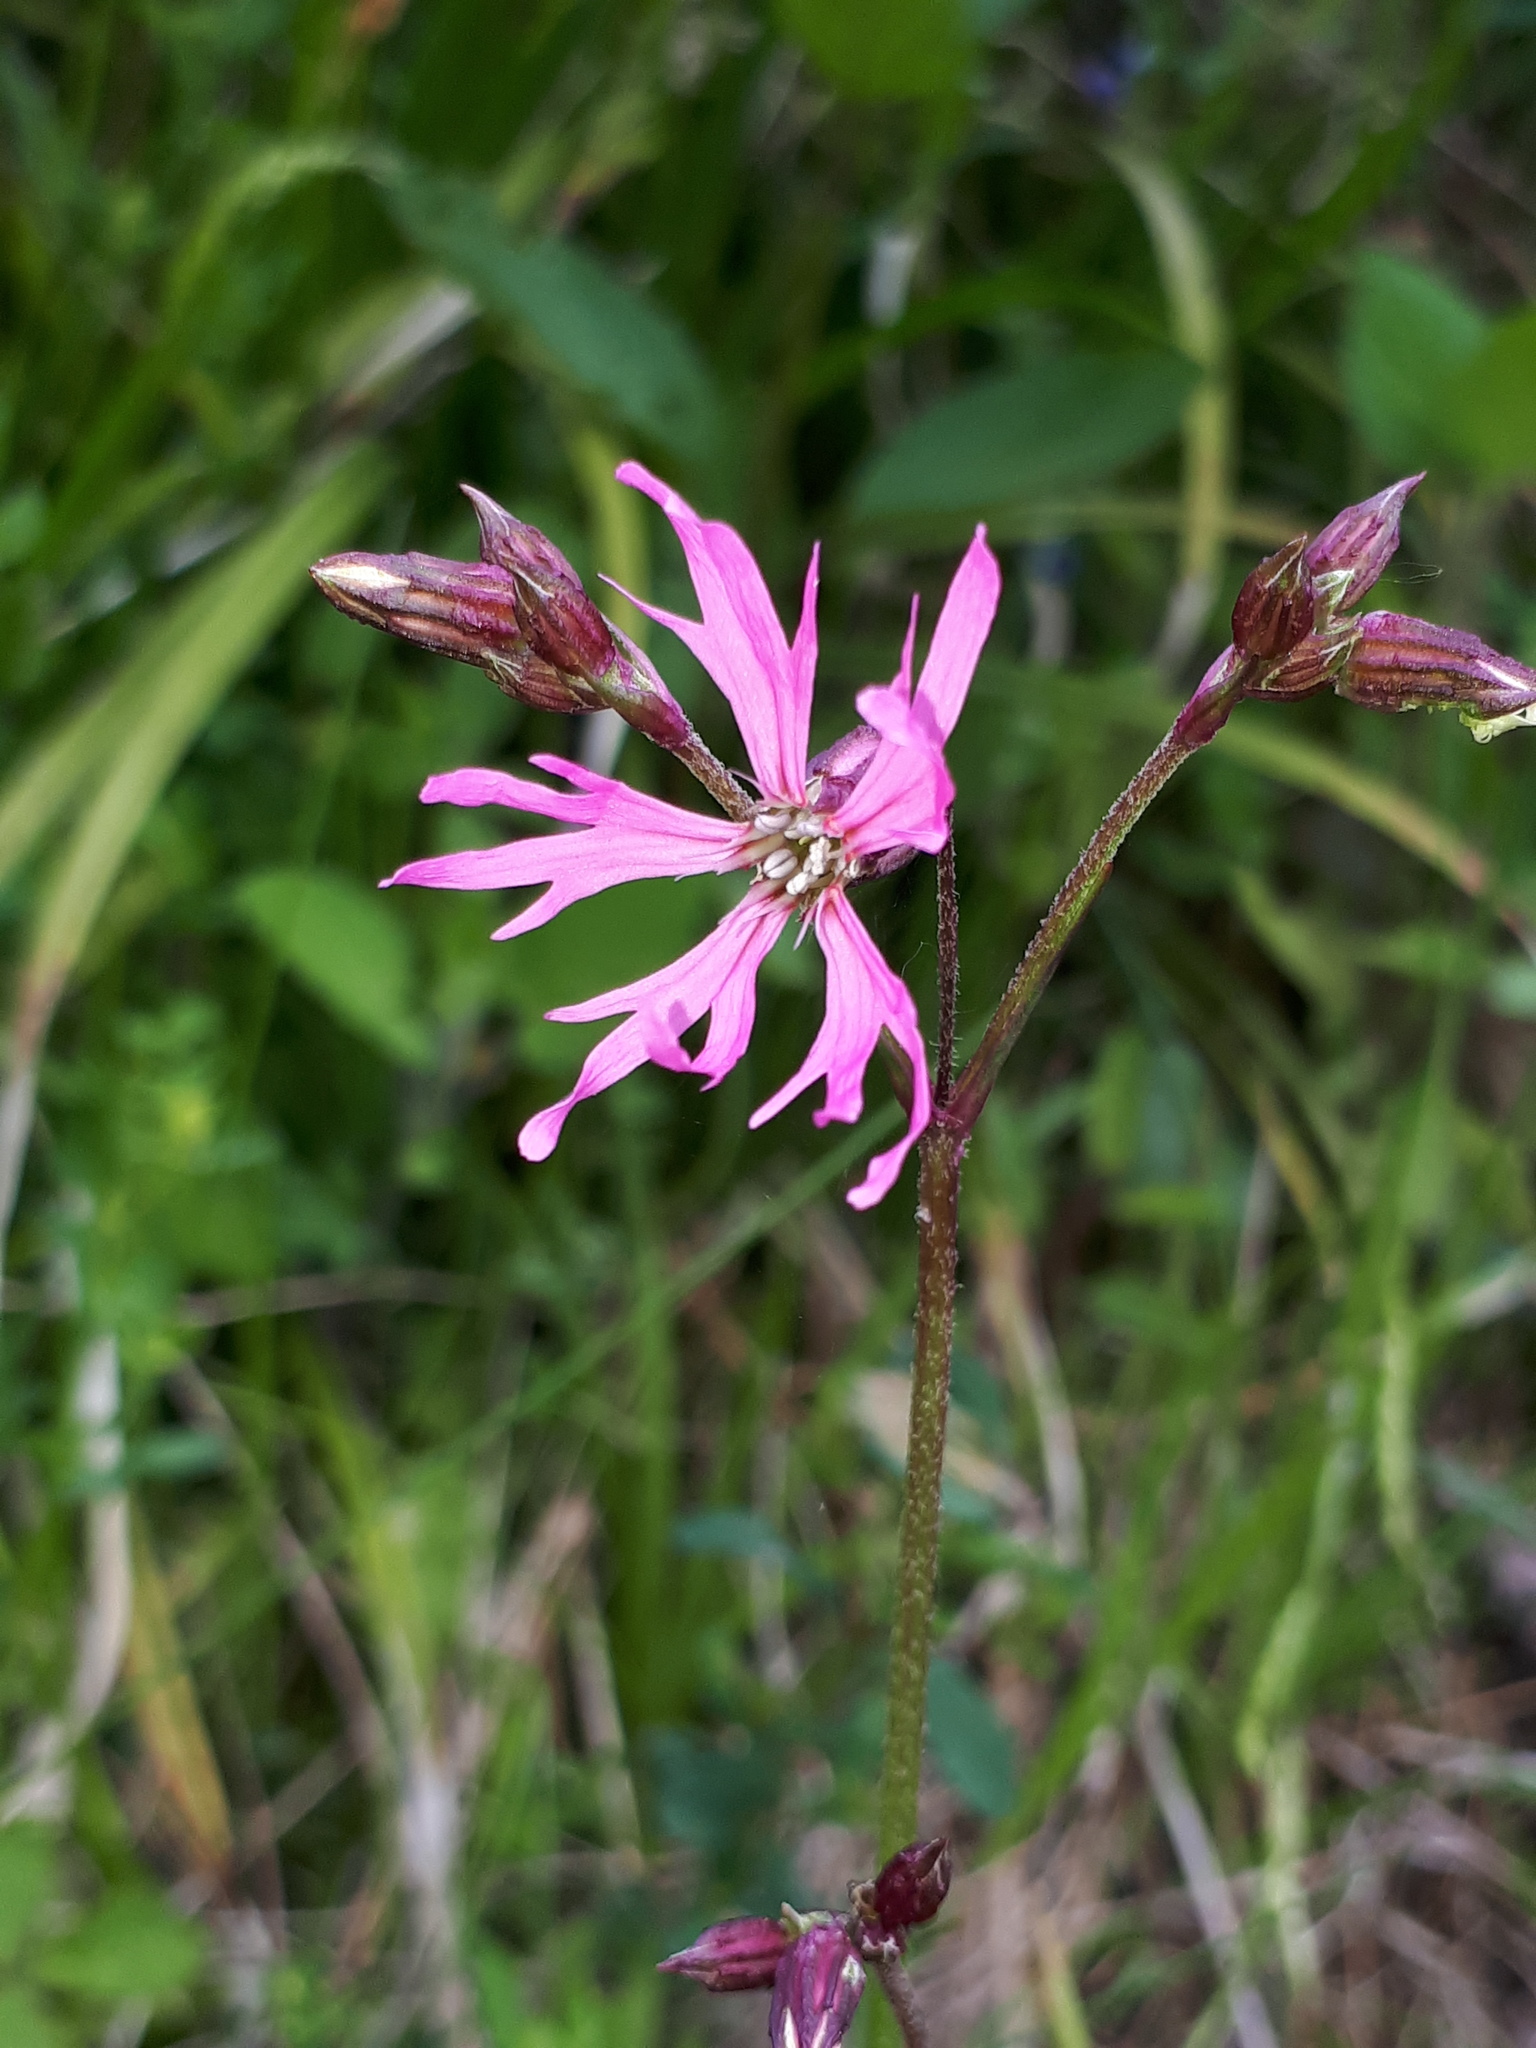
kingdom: Plantae
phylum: Tracheophyta
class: Magnoliopsida
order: Caryophyllales
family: Caryophyllaceae
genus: Silene
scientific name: Silene flos-cuculi
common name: Ragged-robin
